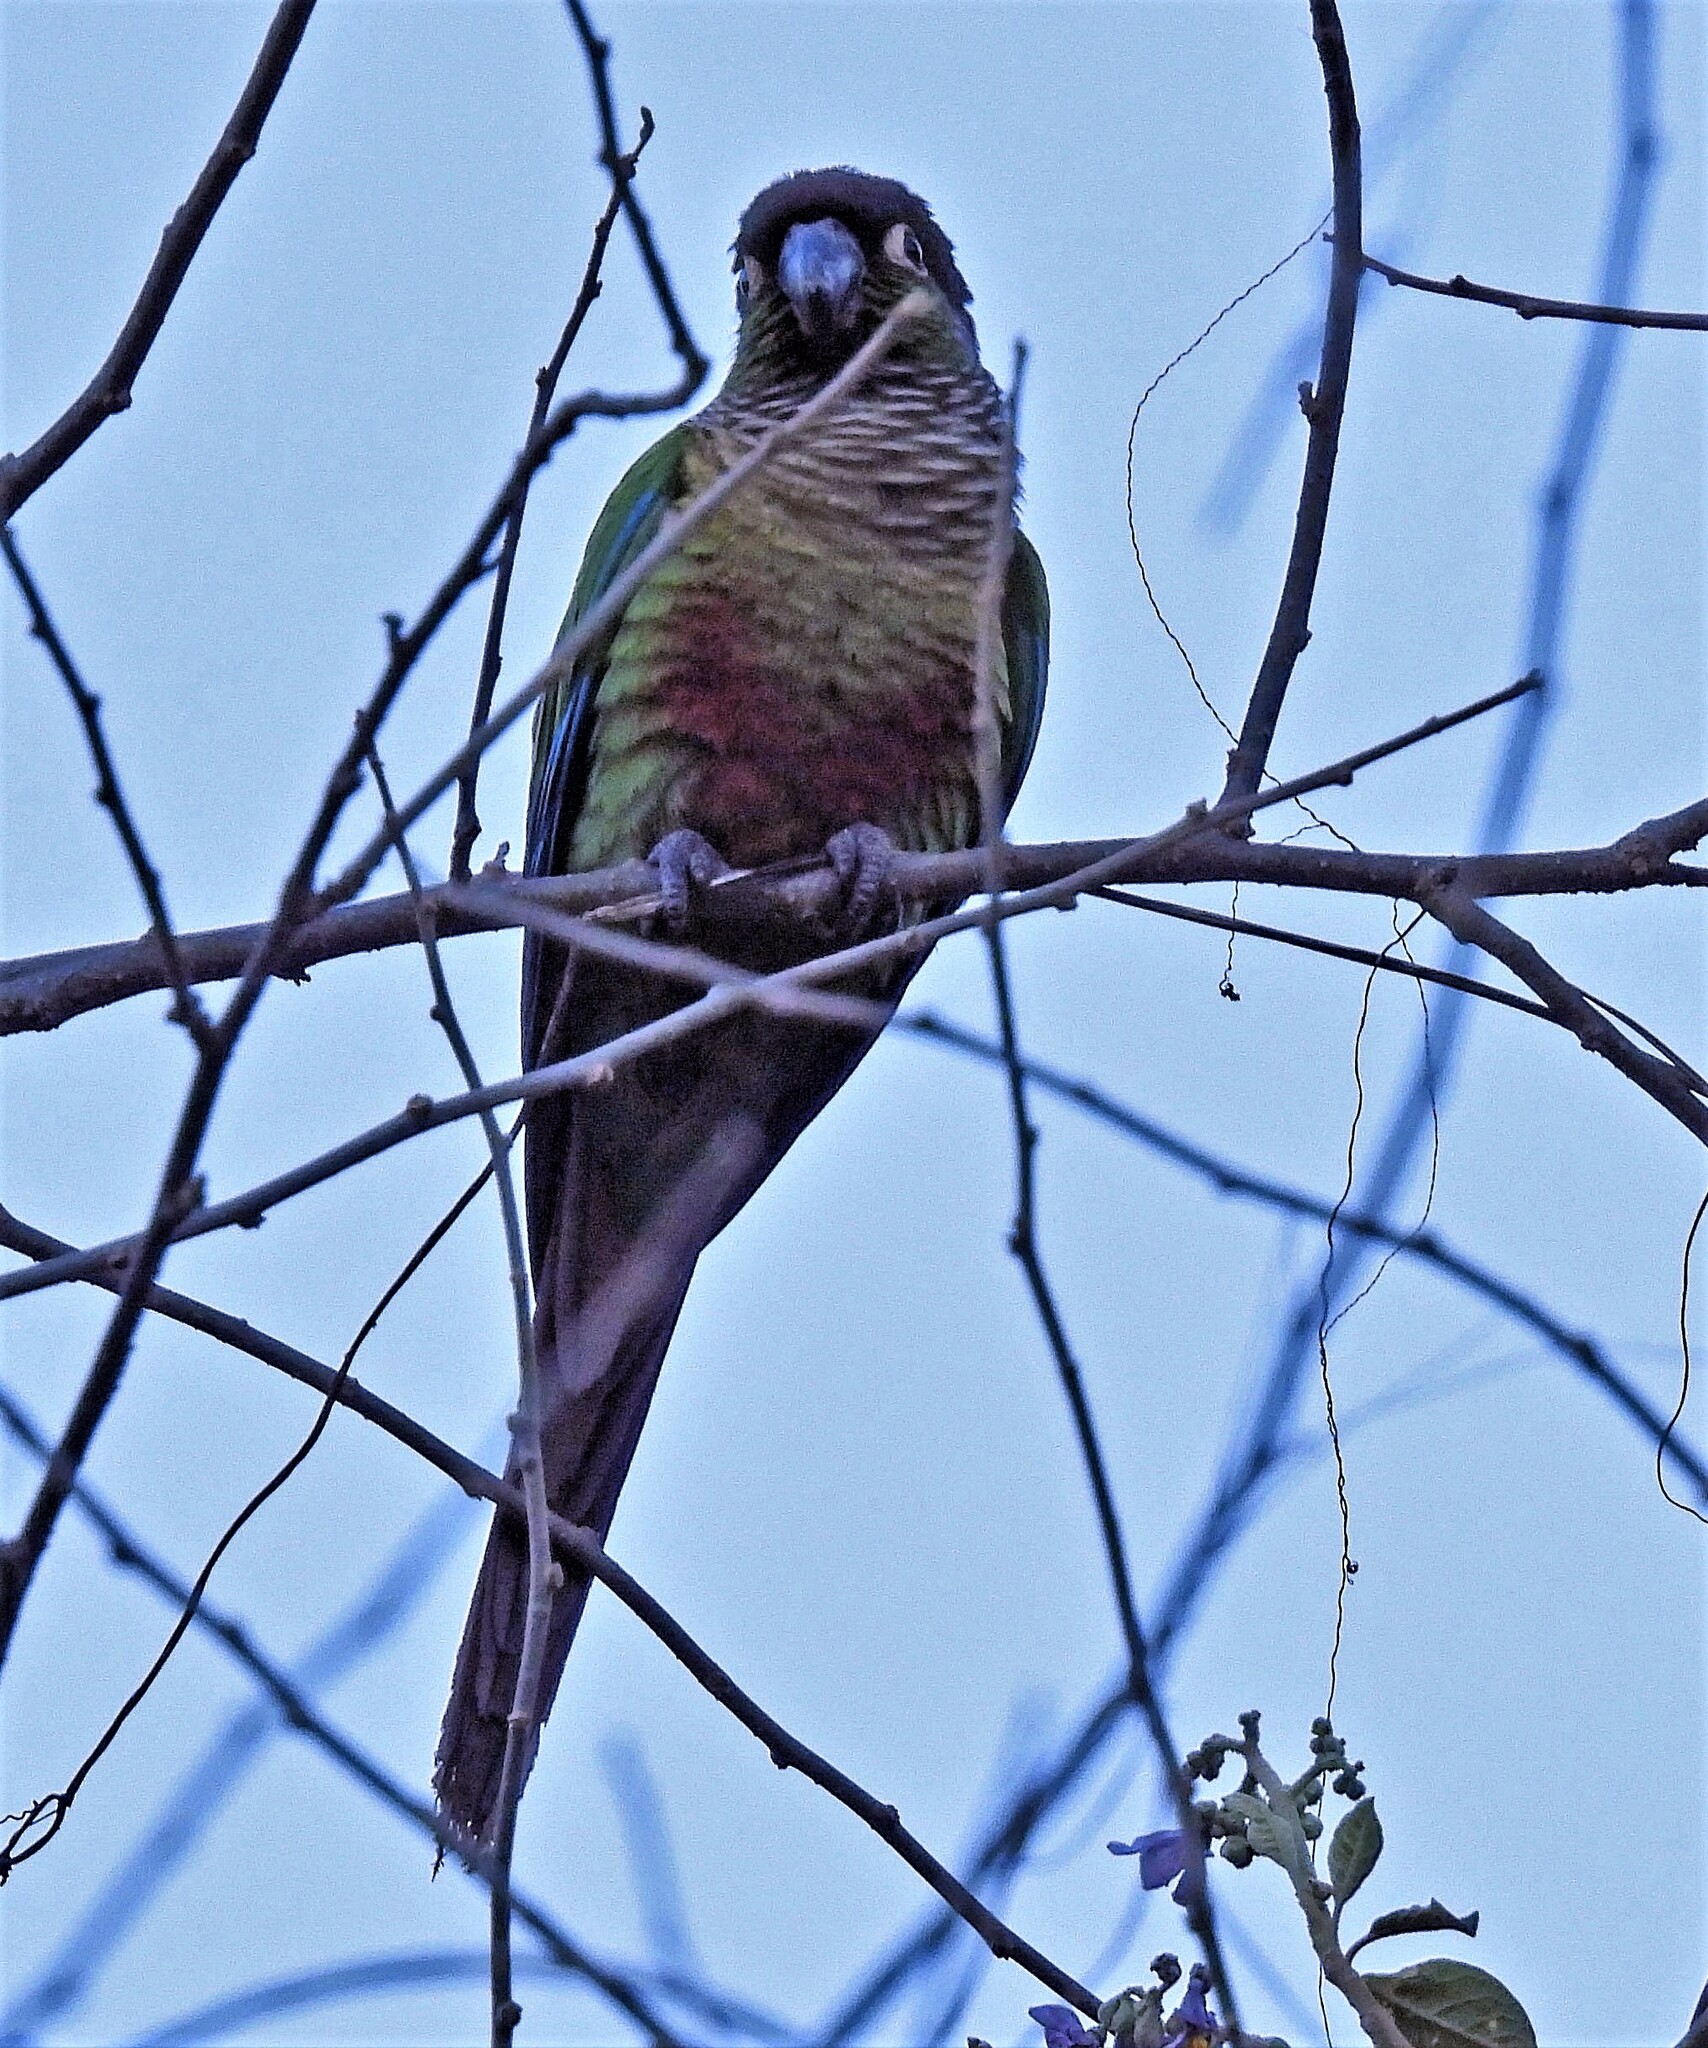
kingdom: Animalia
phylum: Chordata
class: Aves
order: Psittaciformes
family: Psittacidae
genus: Pyrrhura
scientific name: Pyrrhura molinae
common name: Green-cheeked parakeet
